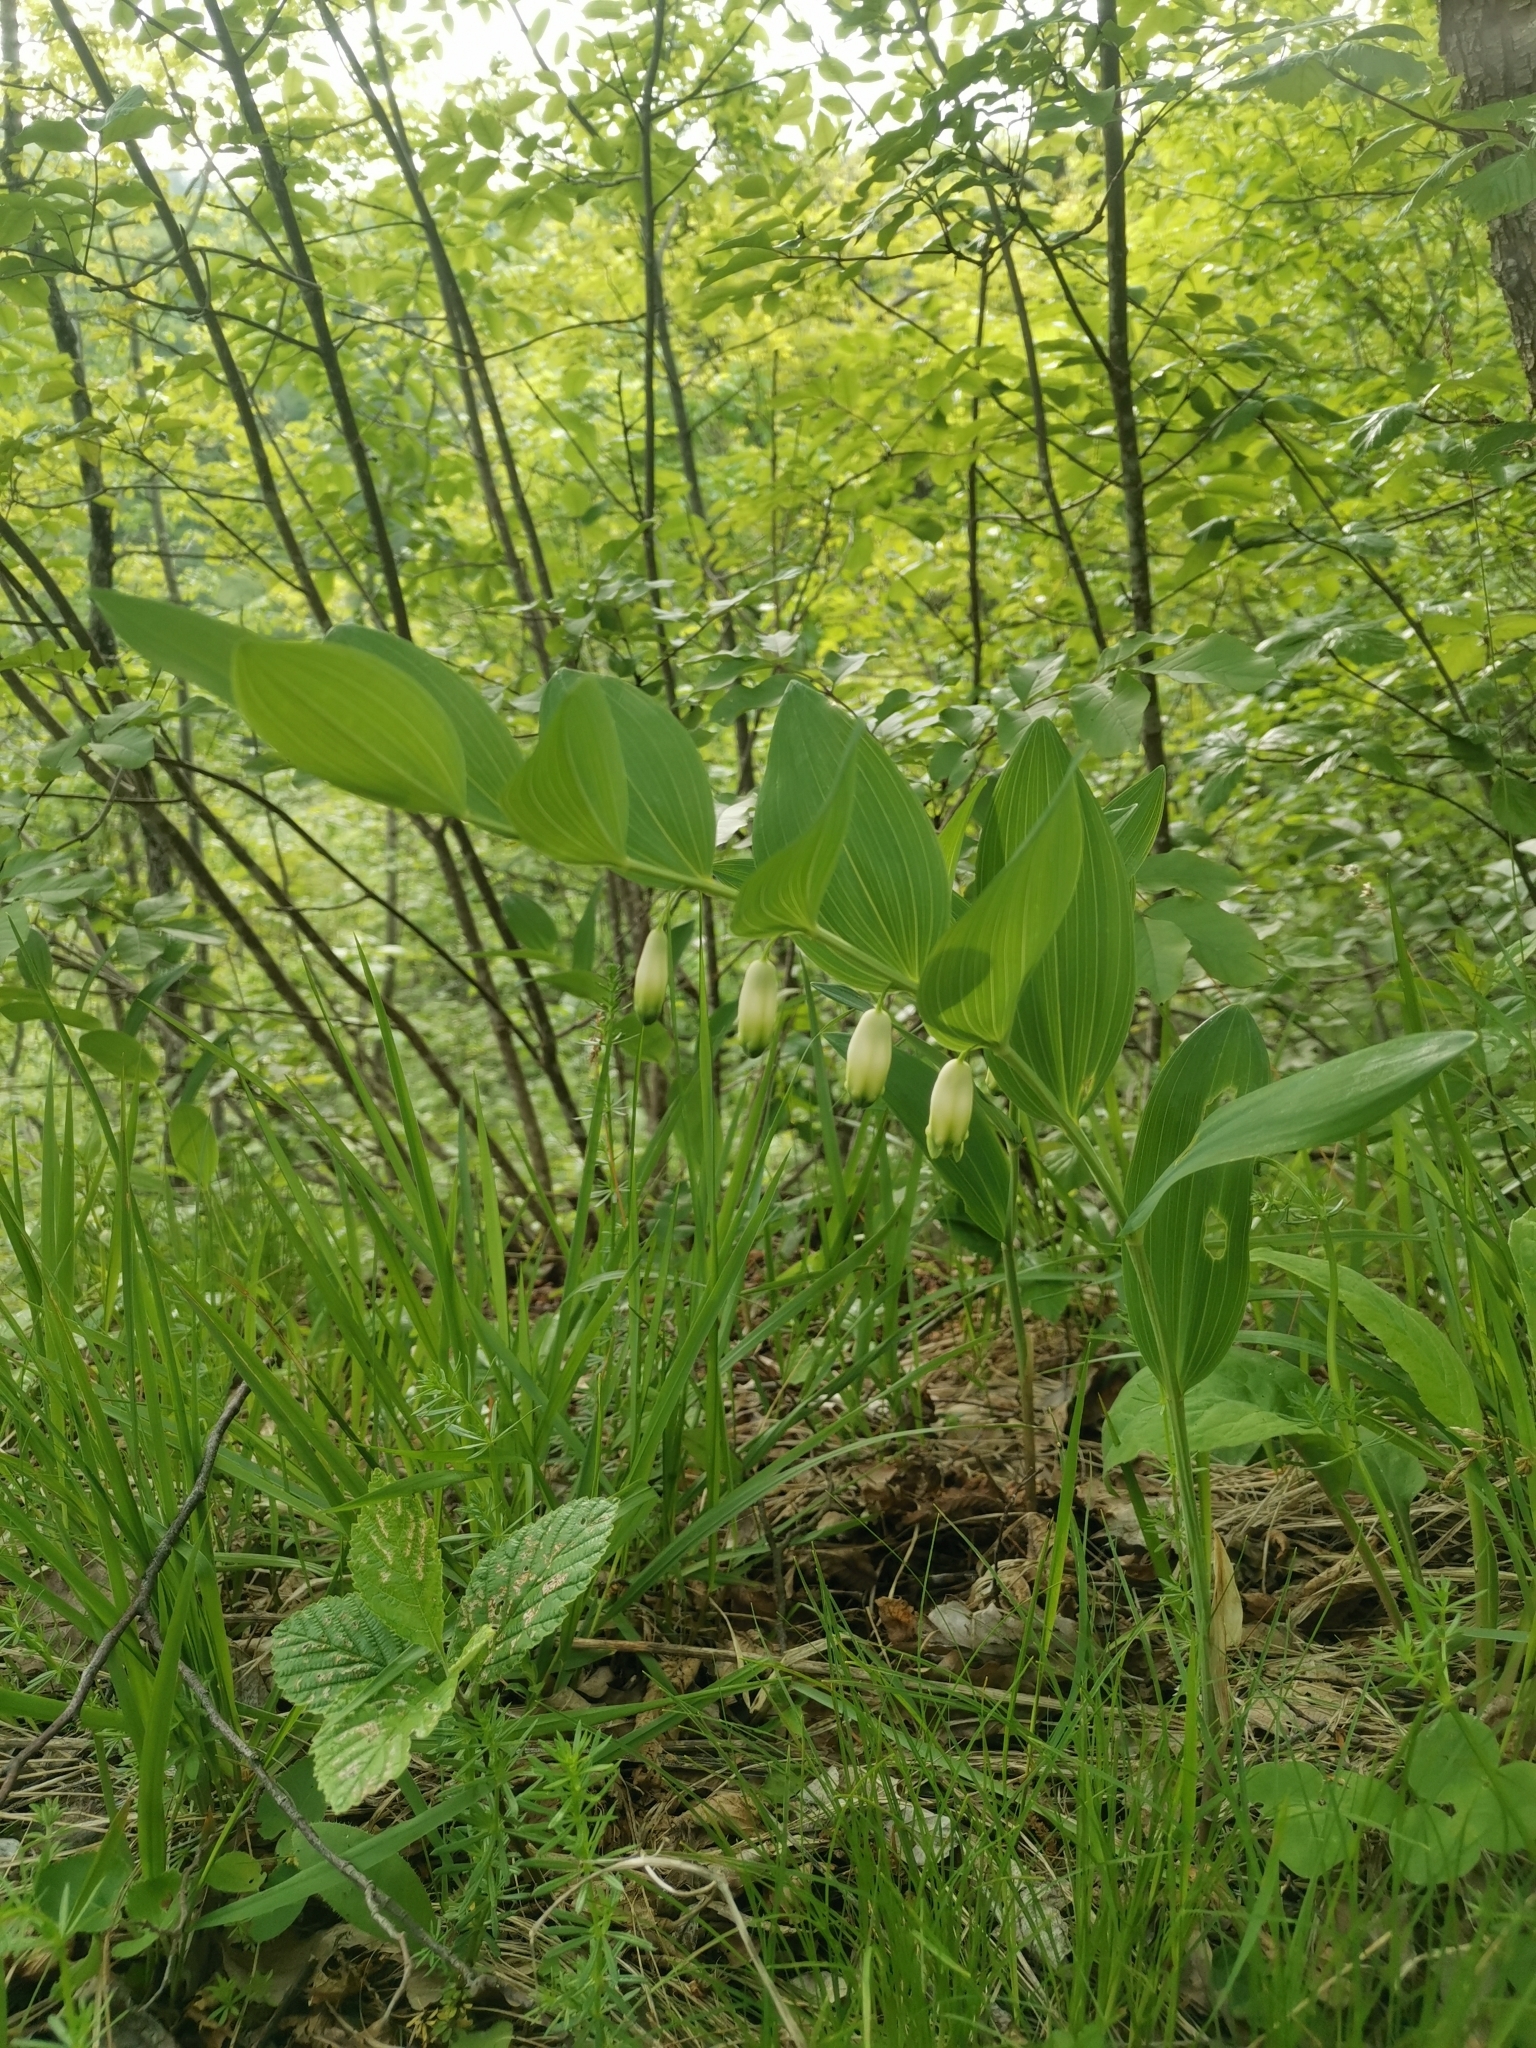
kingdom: Plantae
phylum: Tracheophyta
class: Liliopsida
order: Asparagales
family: Asparagaceae
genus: Polygonatum
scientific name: Polygonatum odoratum
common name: Angular solomon's-seal
